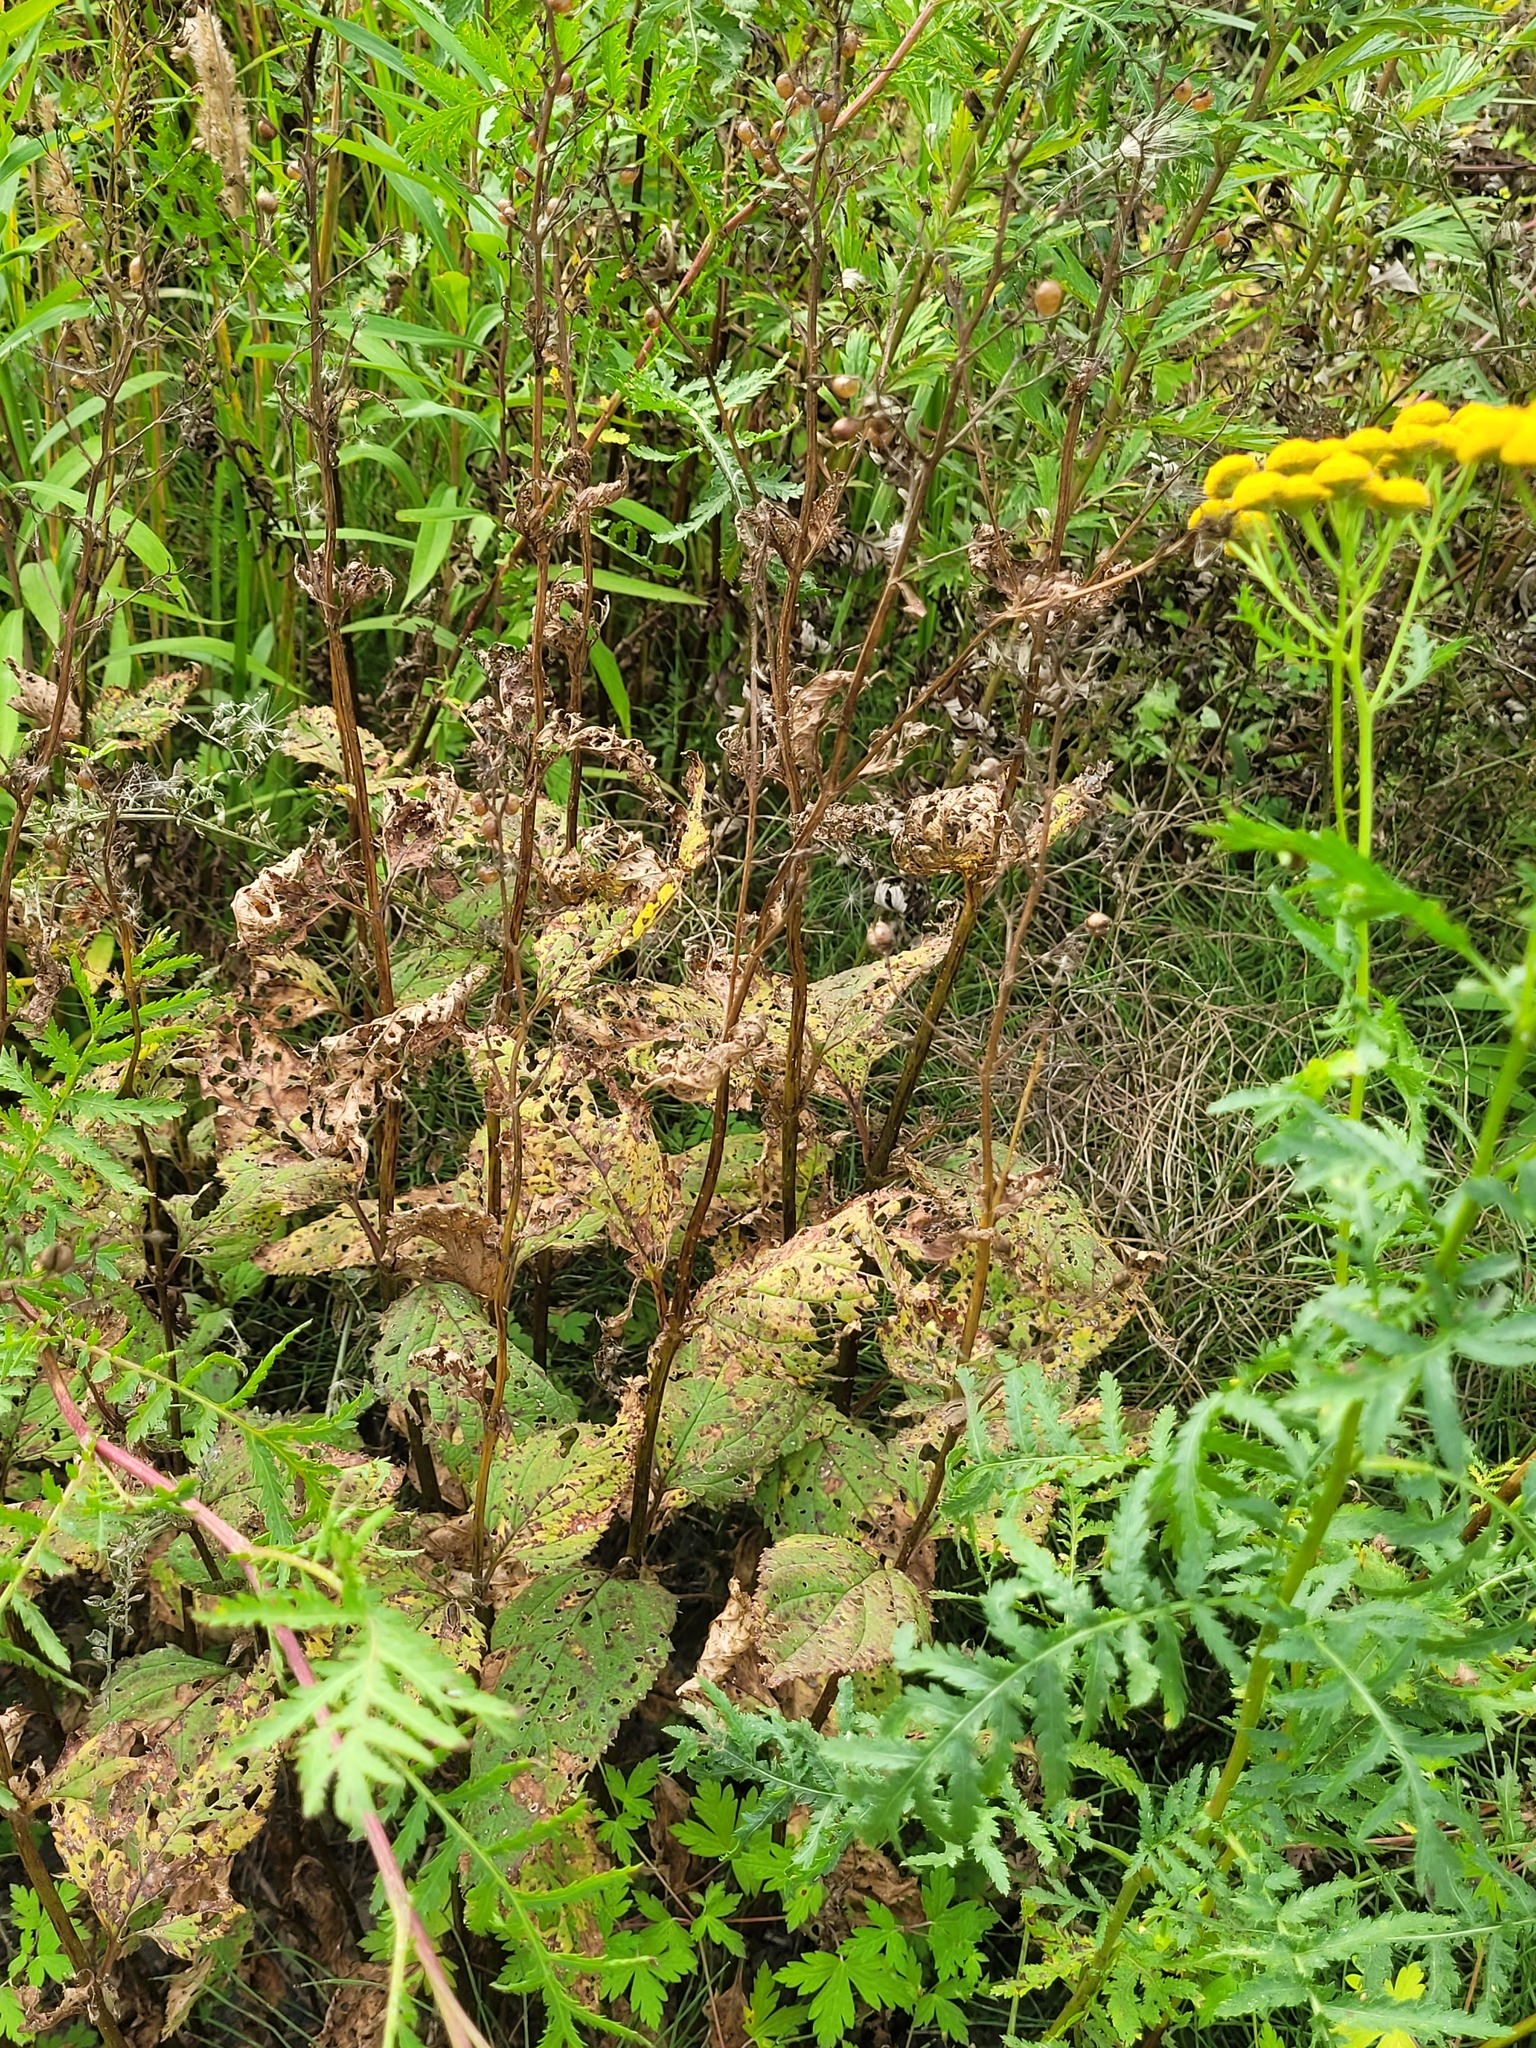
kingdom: Plantae
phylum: Tracheophyta
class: Magnoliopsida
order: Lamiales
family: Scrophulariaceae
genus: Scrophularia
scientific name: Scrophularia nodosa
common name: Common figwort
